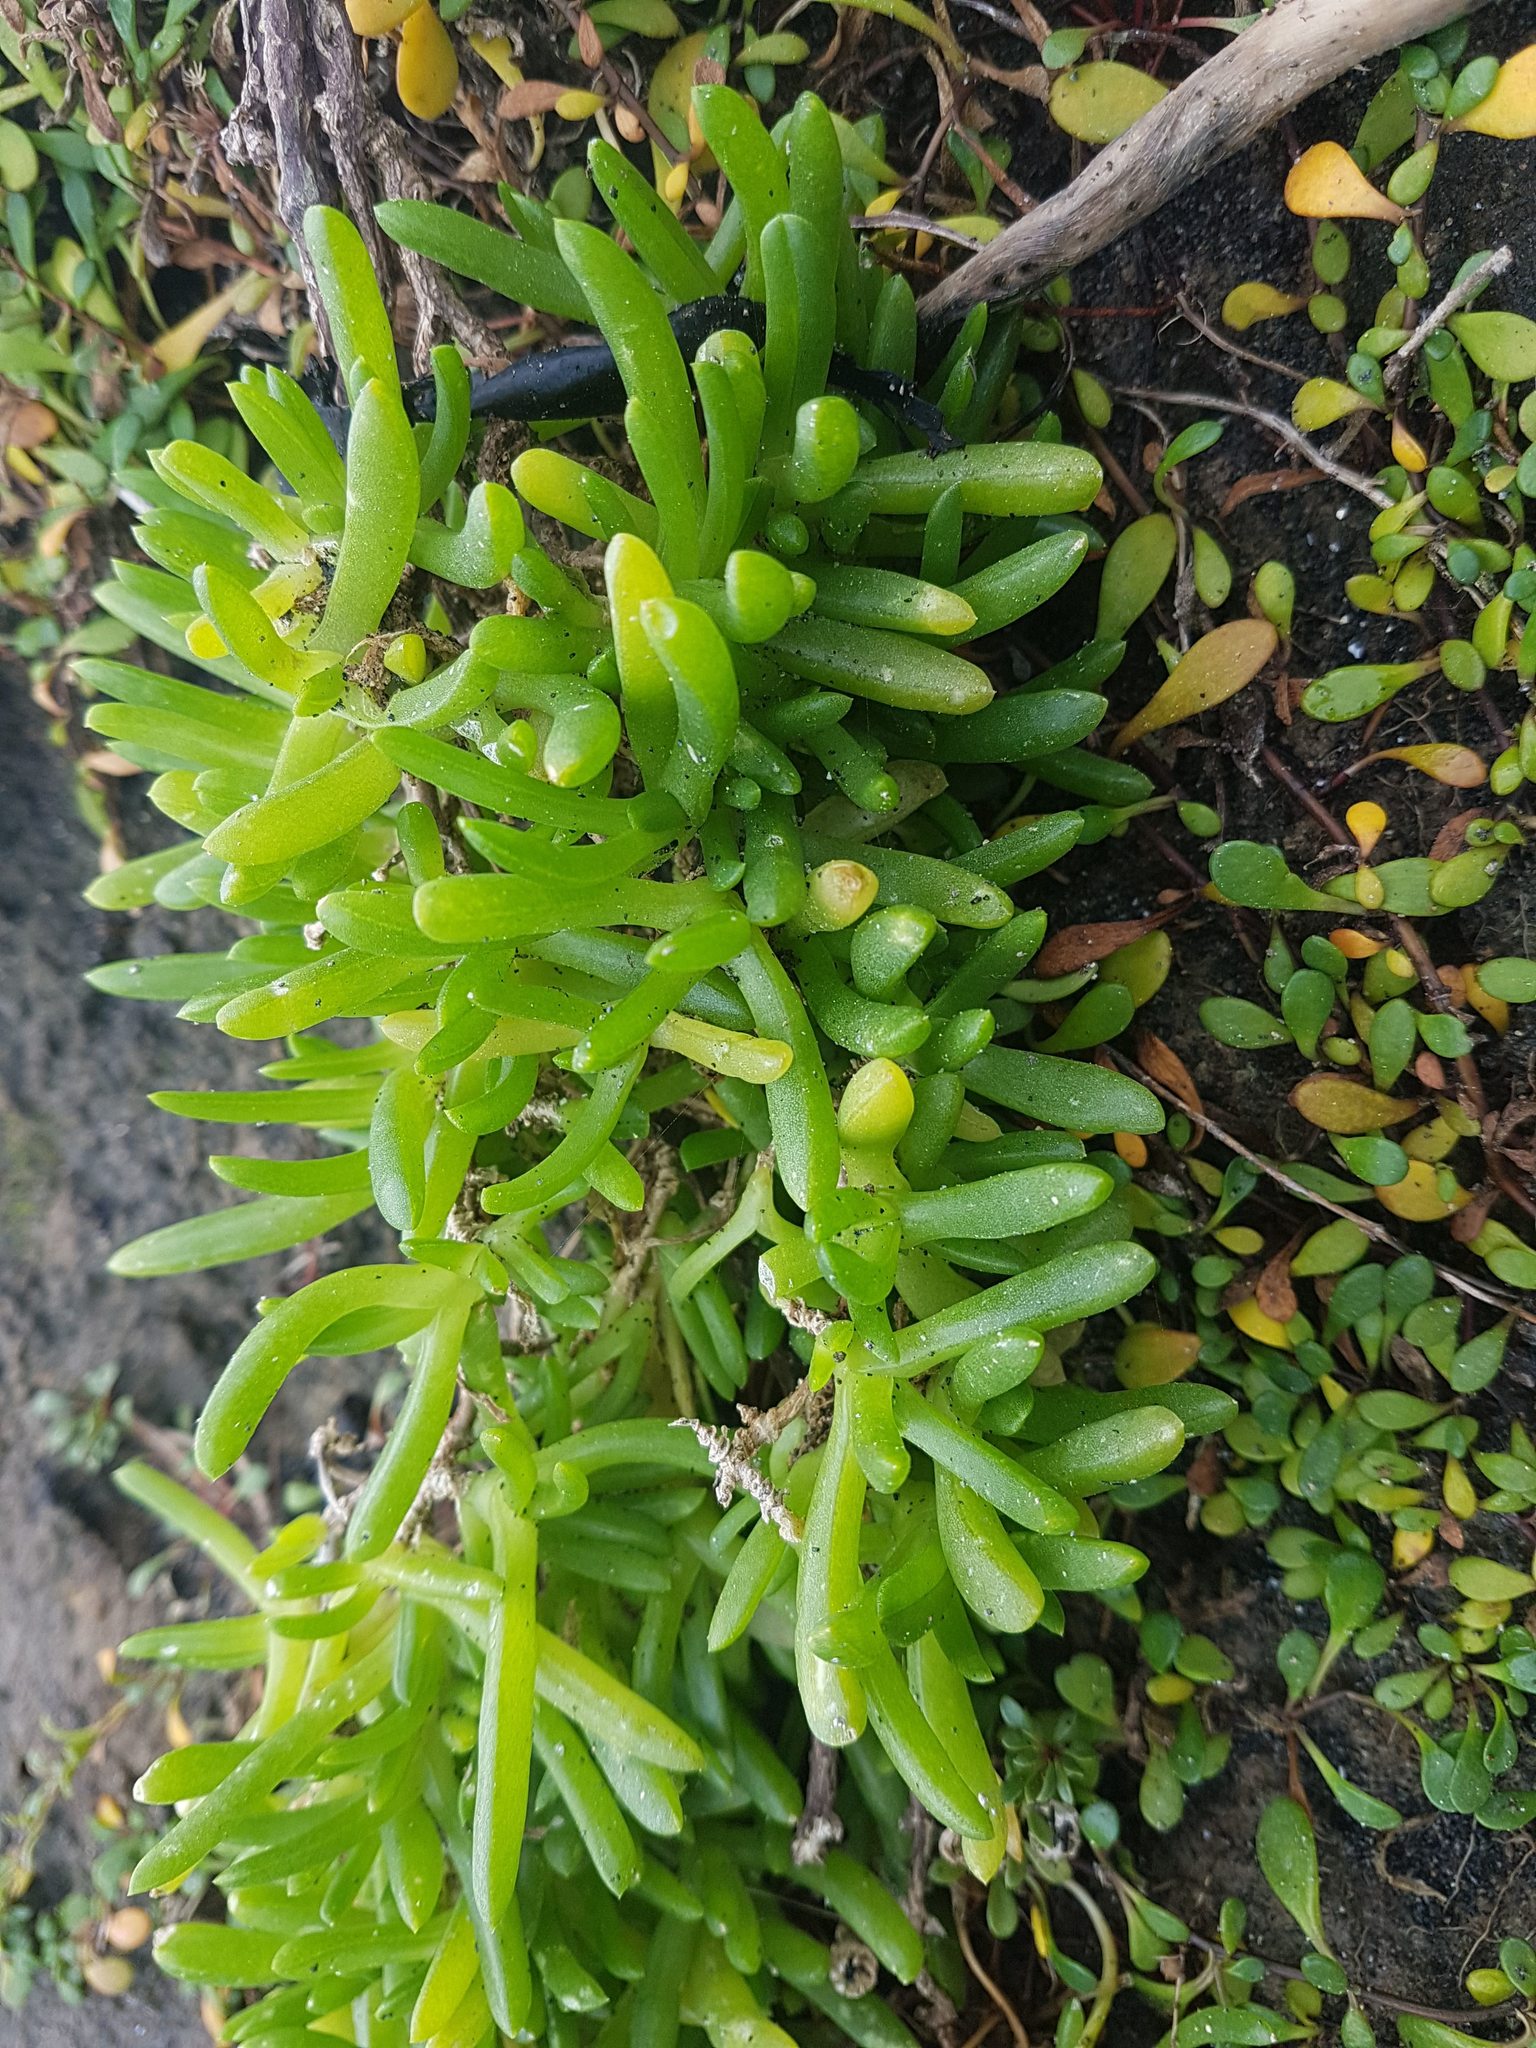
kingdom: Plantae
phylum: Tracheophyta
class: Magnoliopsida
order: Caryophyllales
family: Aizoaceae
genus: Disphyma
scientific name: Disphyma australe
